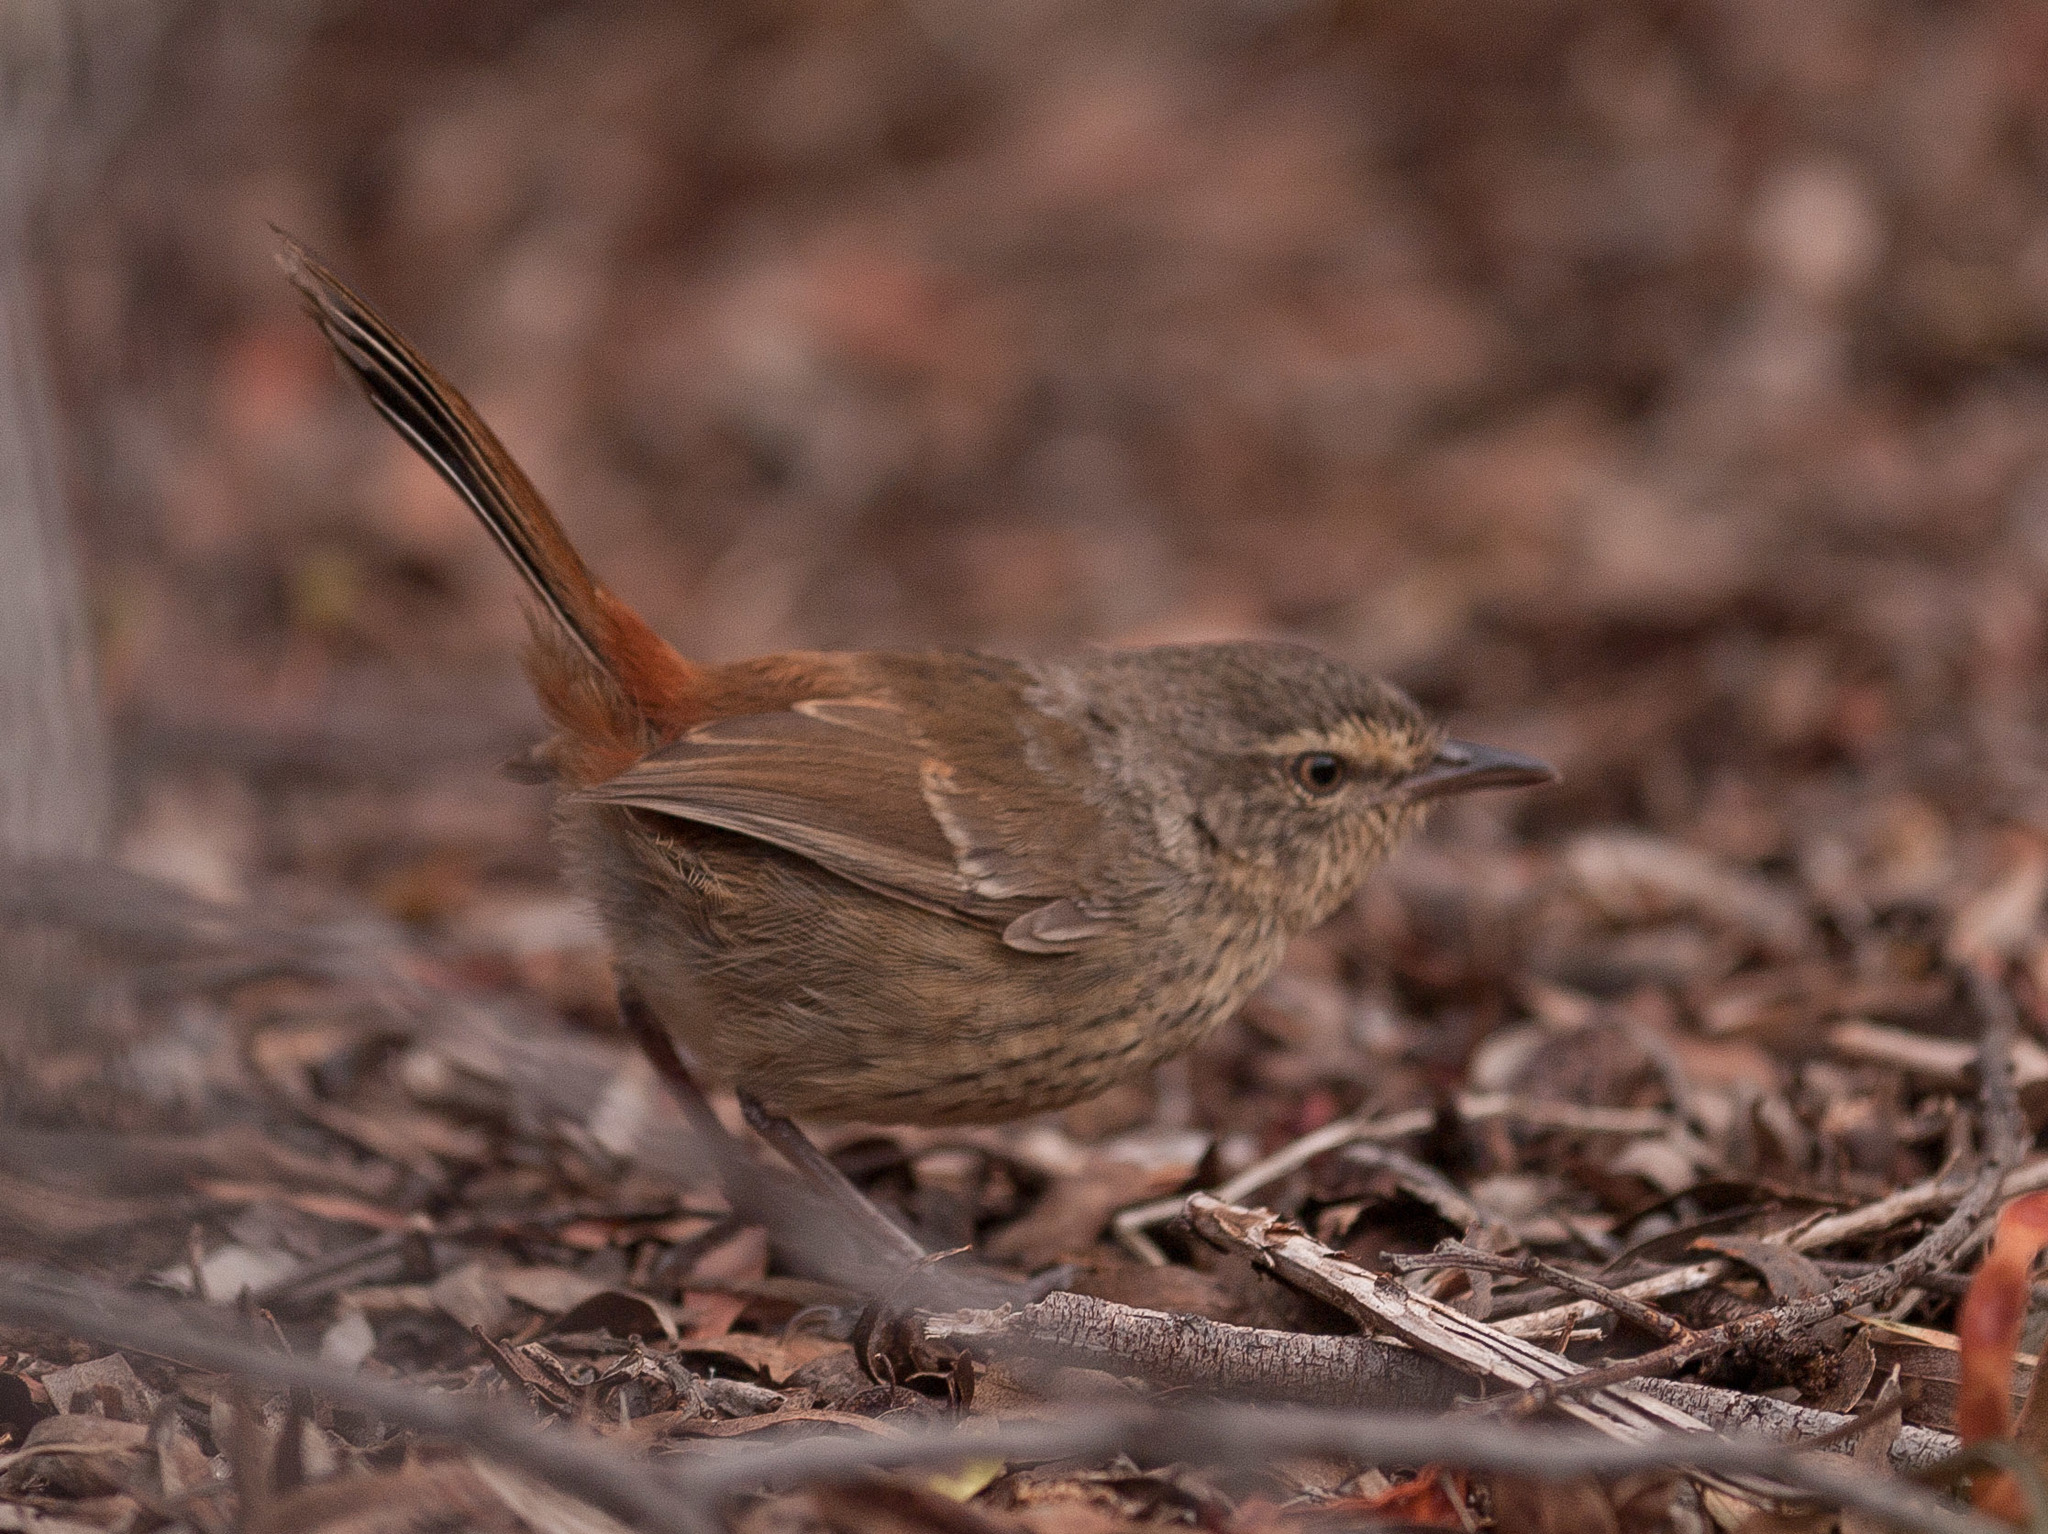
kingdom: Animalia
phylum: Chordata
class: Aves
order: Passeriformes
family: Acanthizidae
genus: Calamanthus
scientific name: Calamanthus pyrrhopygius
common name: Chestnut-rumped heathwren
